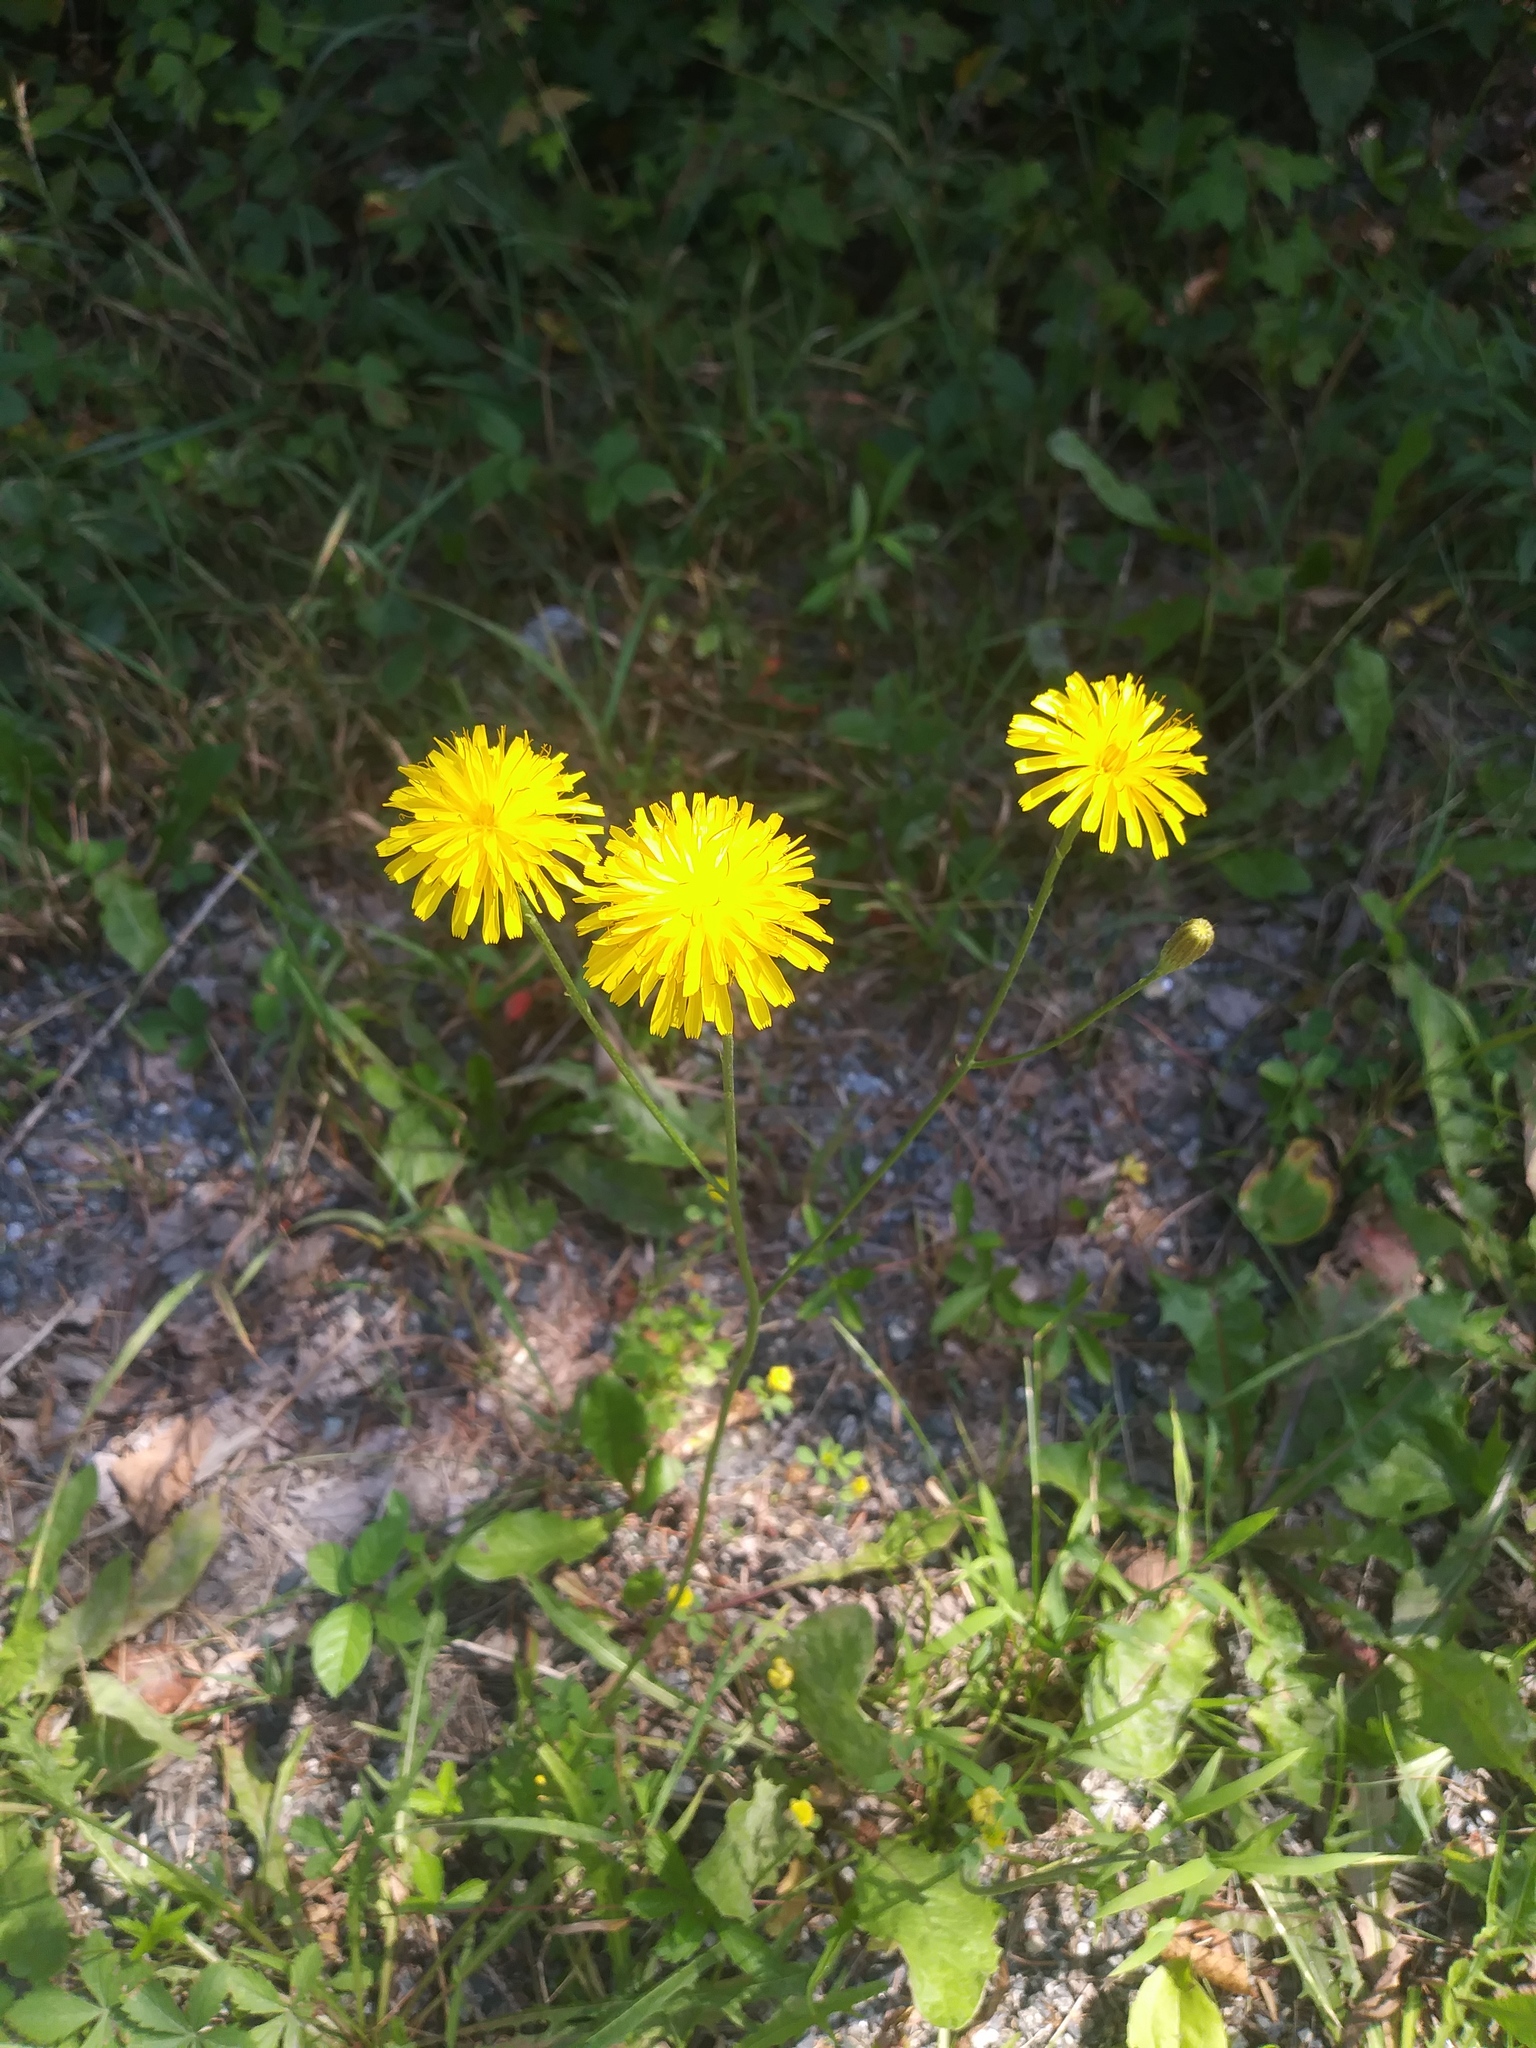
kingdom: Plantae
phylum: Tracheophyta
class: Magnoliopsida
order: Asterales
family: Asteraceae
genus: Scorzoneroides
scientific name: Scorzoneroides autumnalis
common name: Autumn hawkbit
